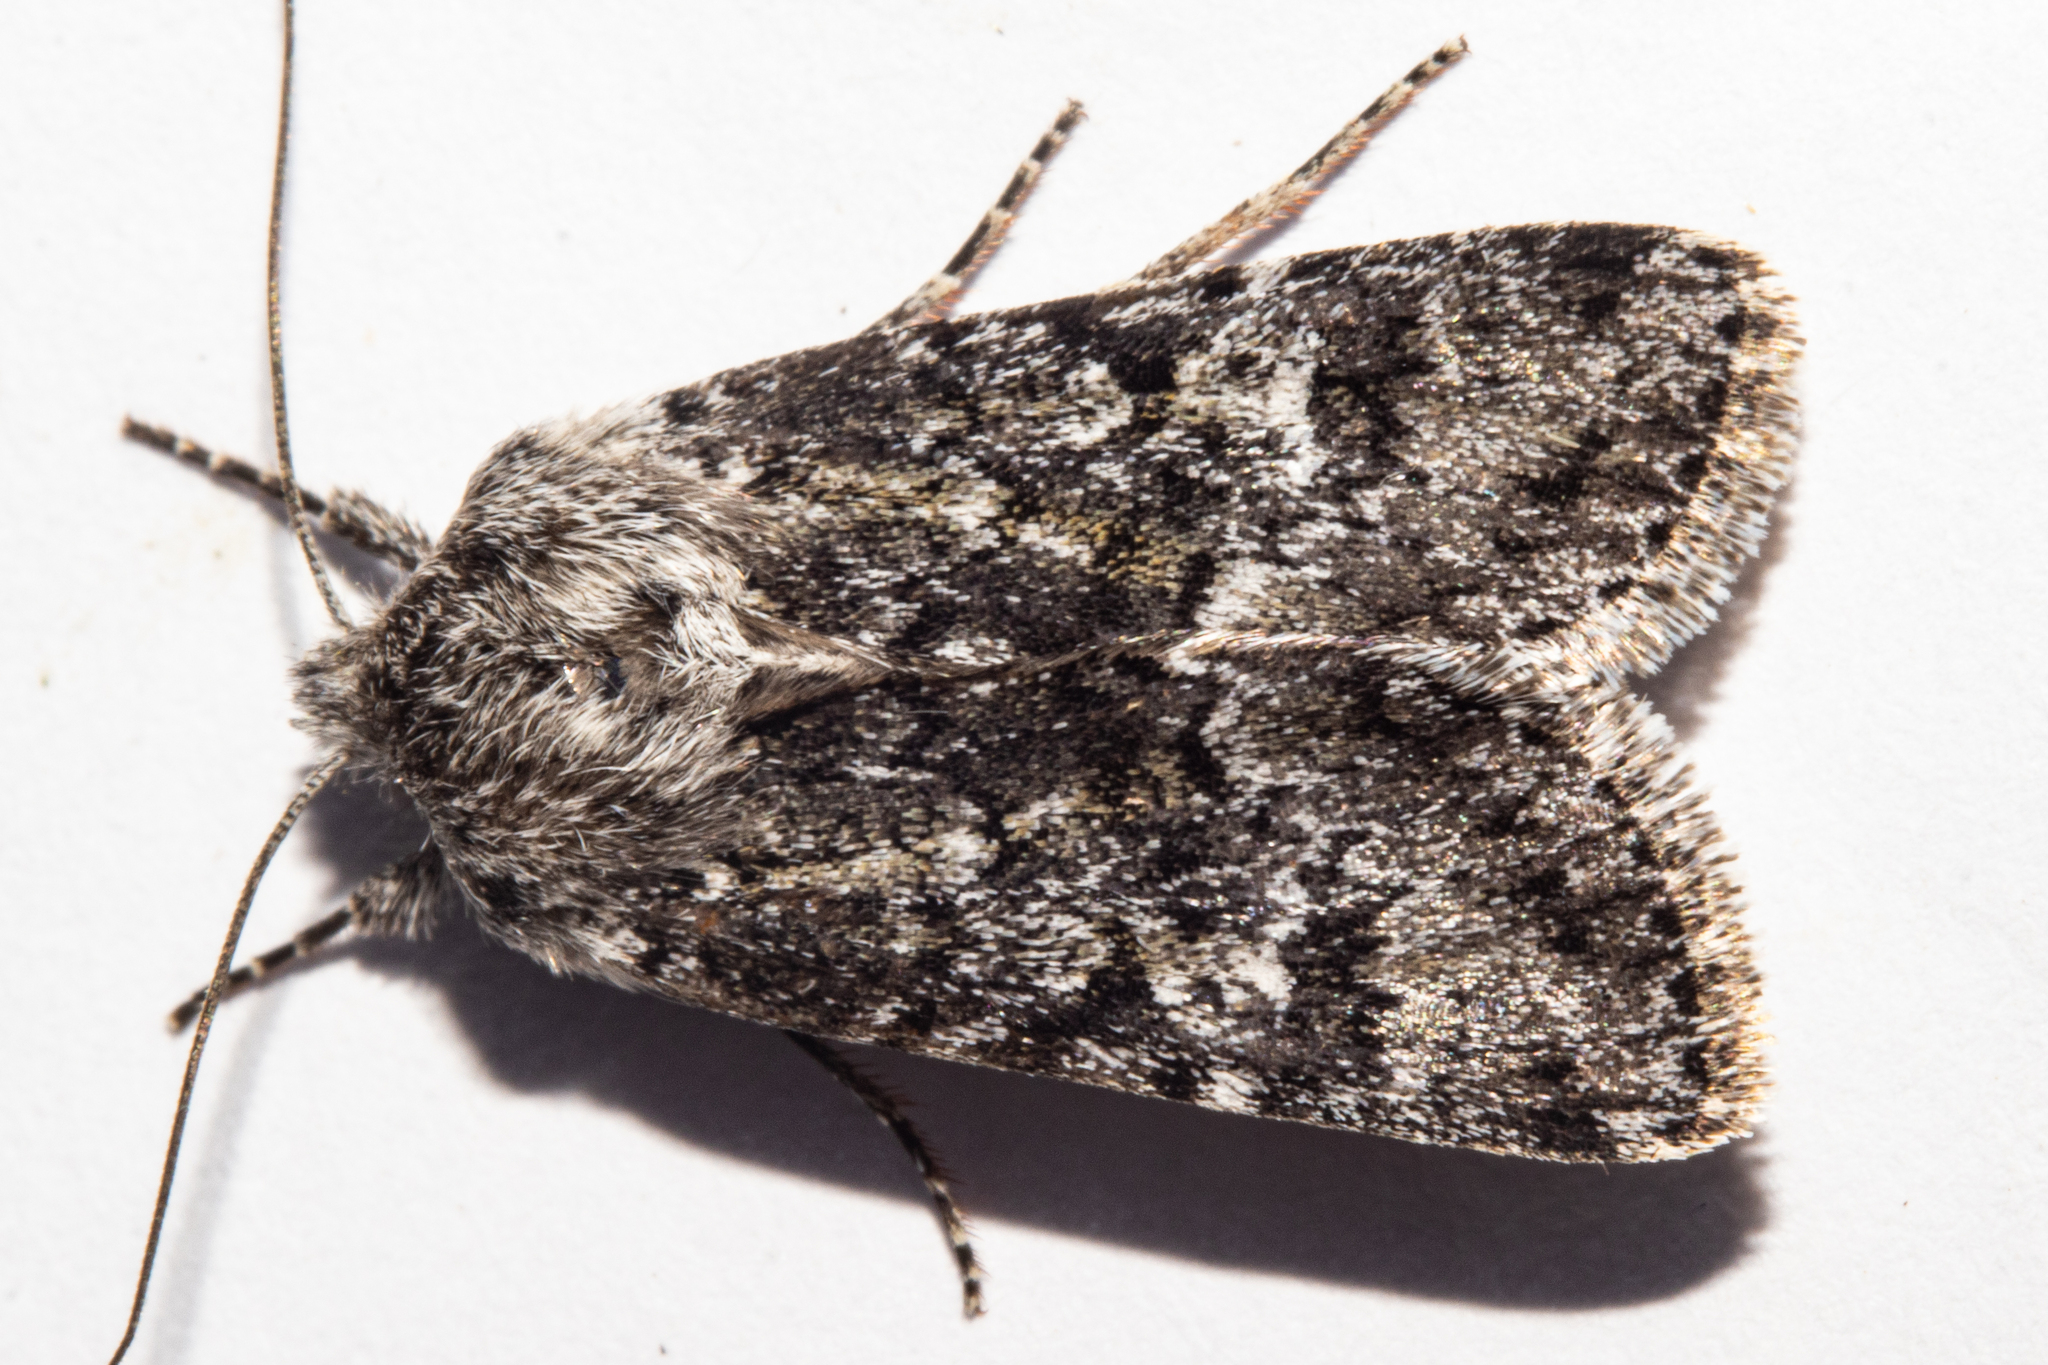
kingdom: Animalia
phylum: Arthropoda
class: Insecta
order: Lepidoptera
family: Noctuidae
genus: Physetica
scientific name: Physetica cucullina
